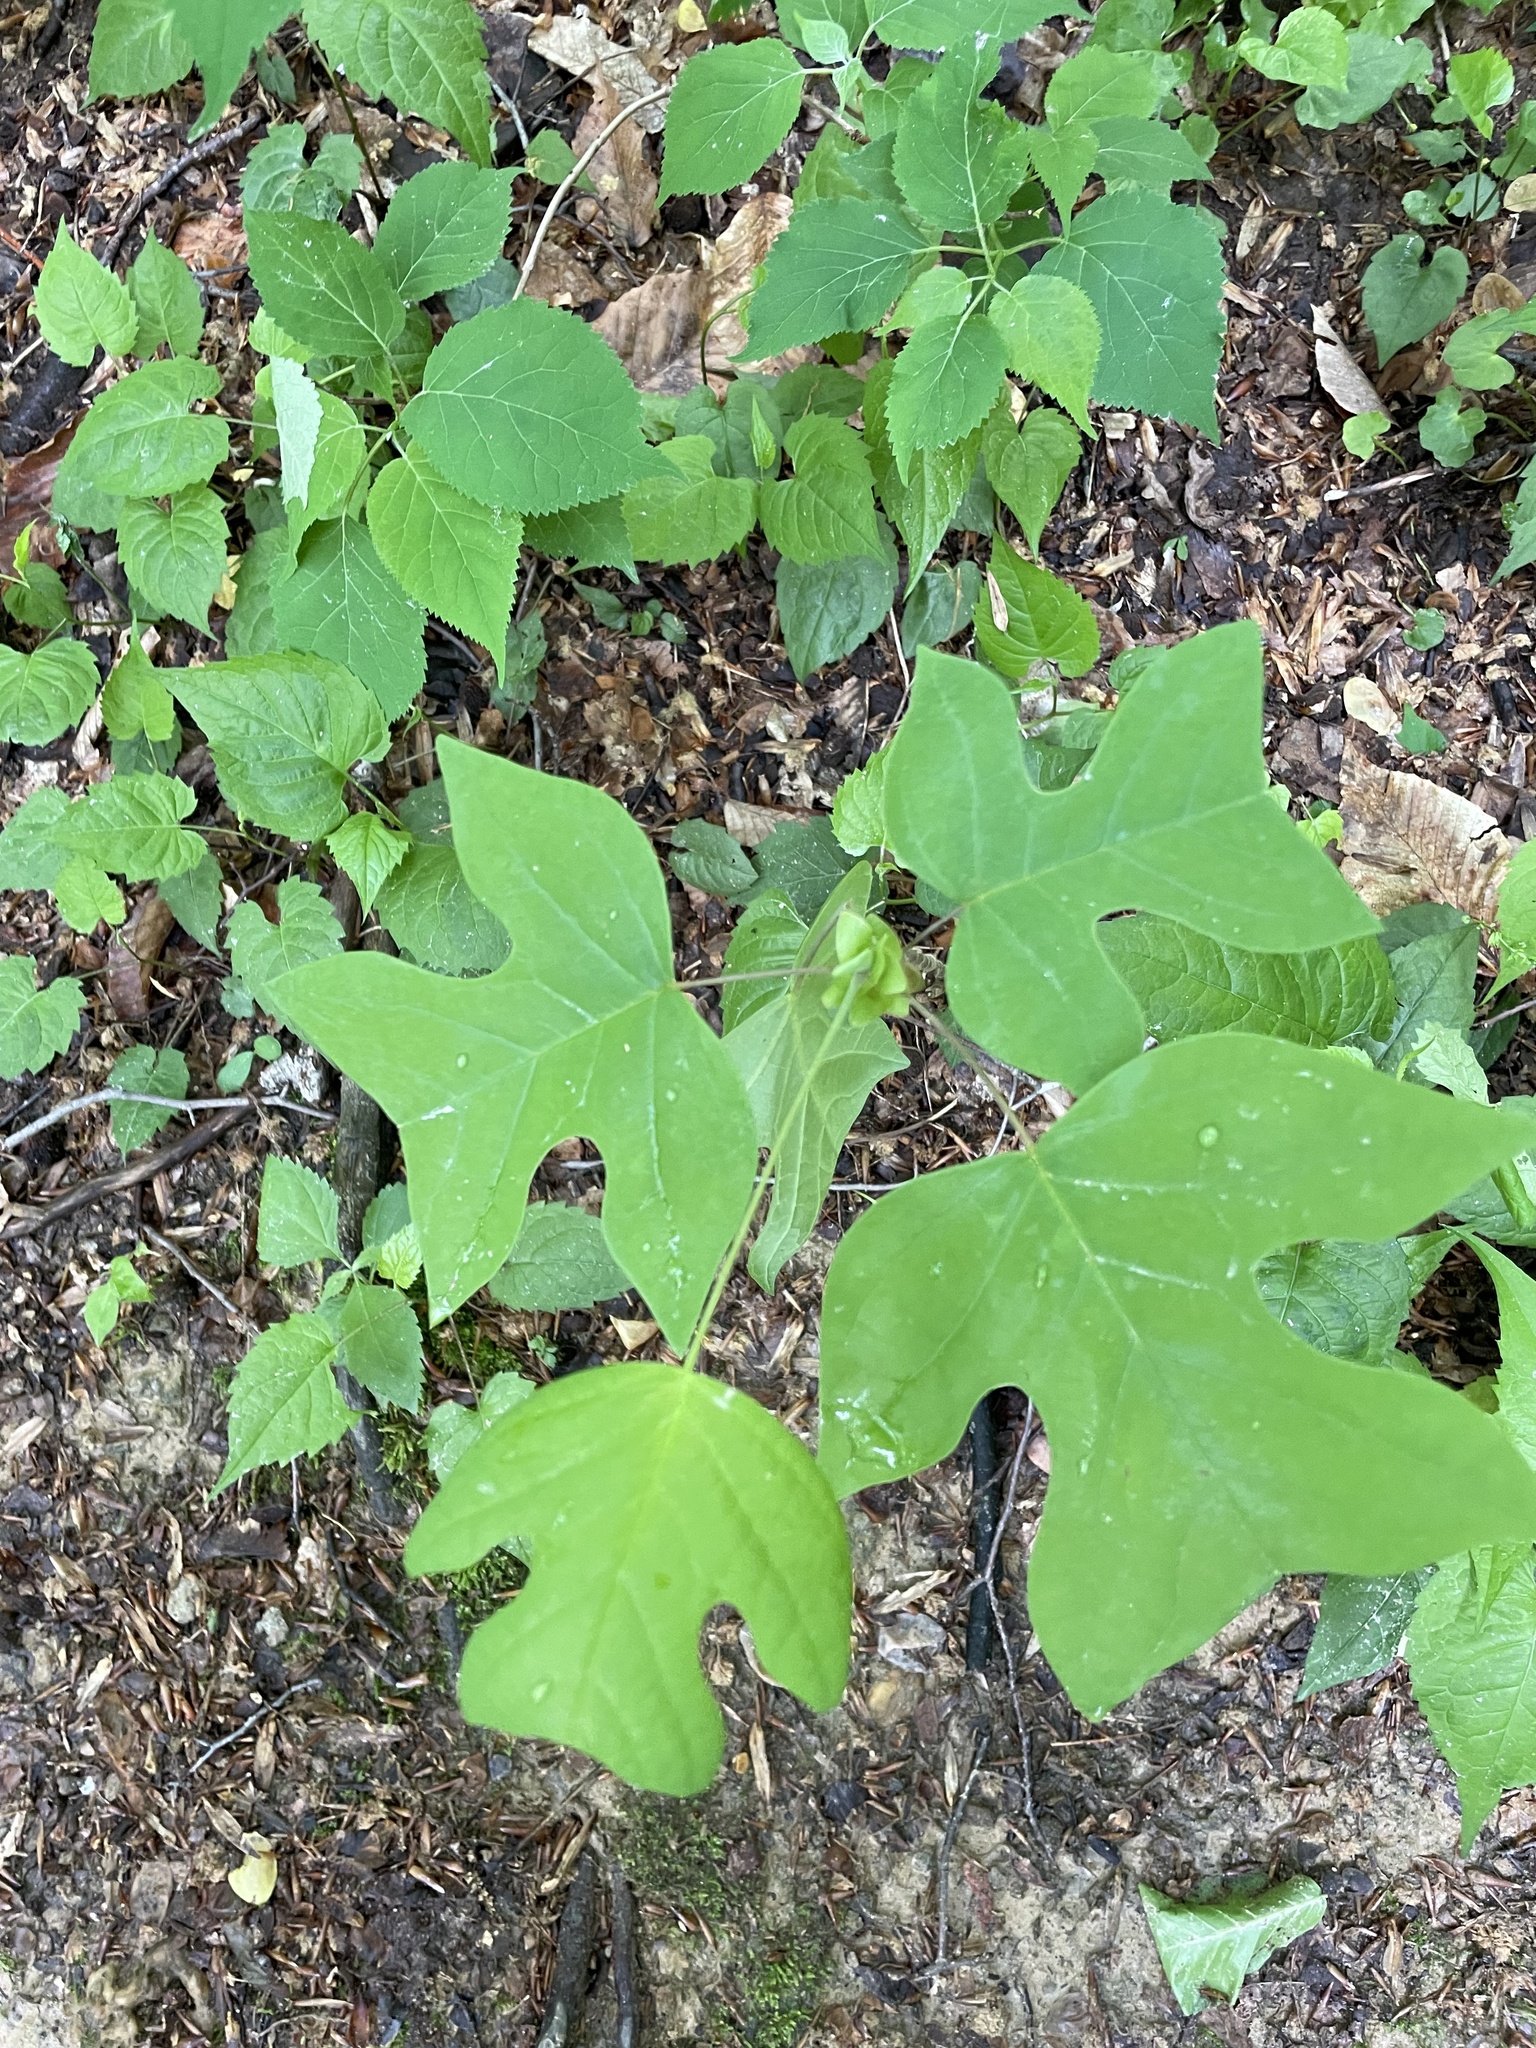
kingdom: Plantae
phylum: Tracheophyta
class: Magnoliopsida
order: Magnoliales
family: Magnoliaceae
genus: Liriodendron
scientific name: Liriodendron tulipifera
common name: Tulip tree
